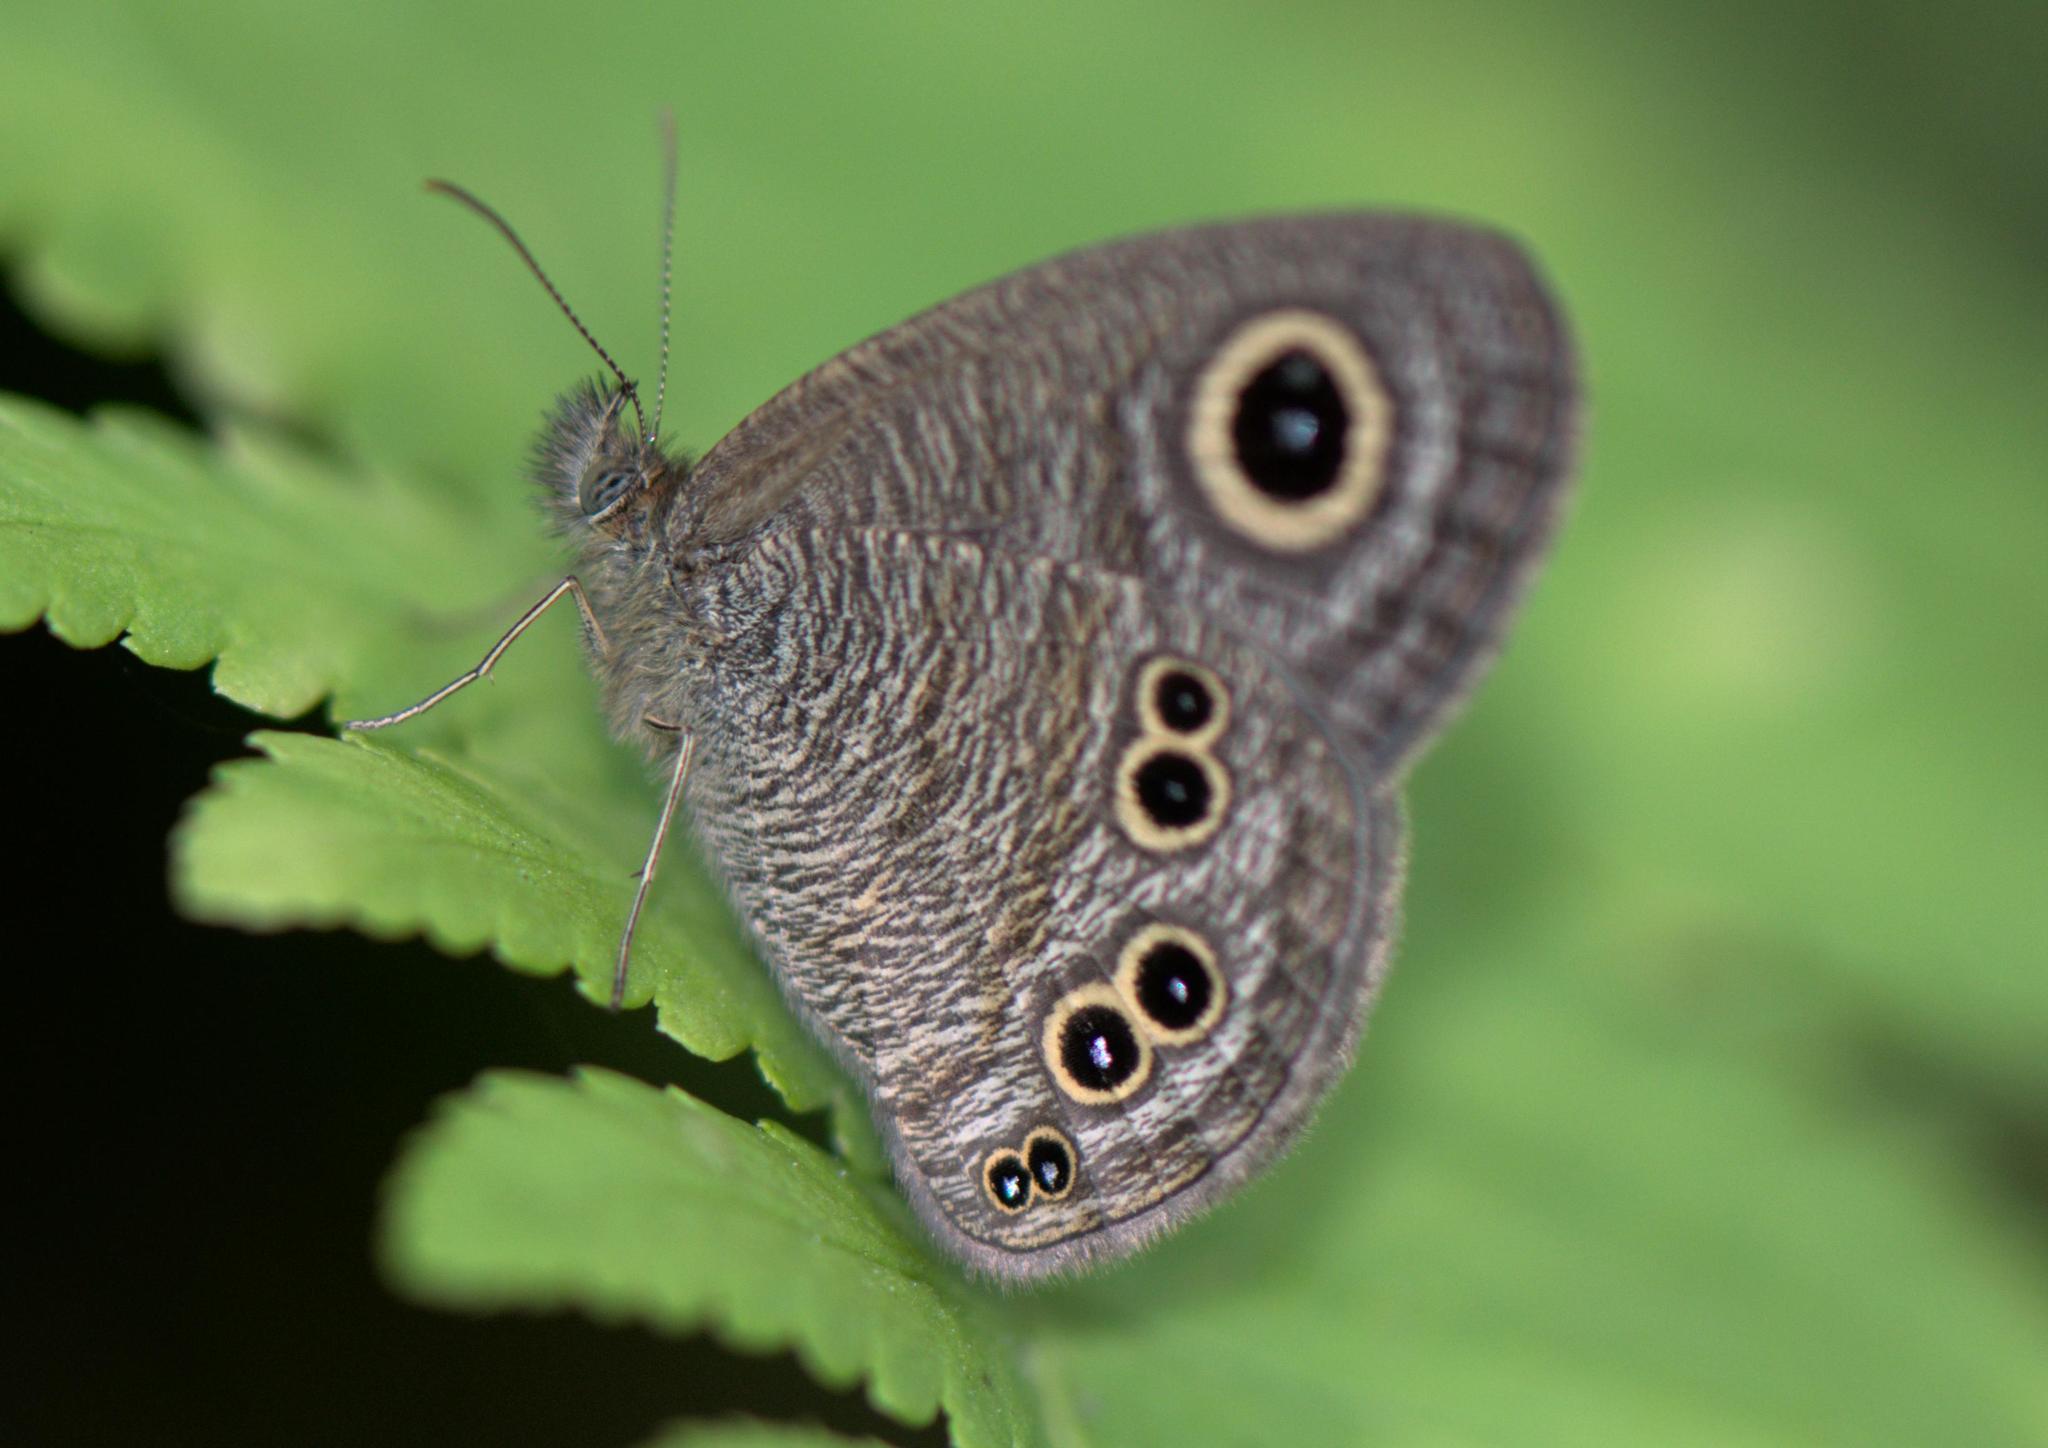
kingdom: Animalia
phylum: Arthropoda
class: Insecta
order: Lepidoptera
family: Nymphalidae
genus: Ypthima
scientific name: Ypthima baldus
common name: Common five-ring
